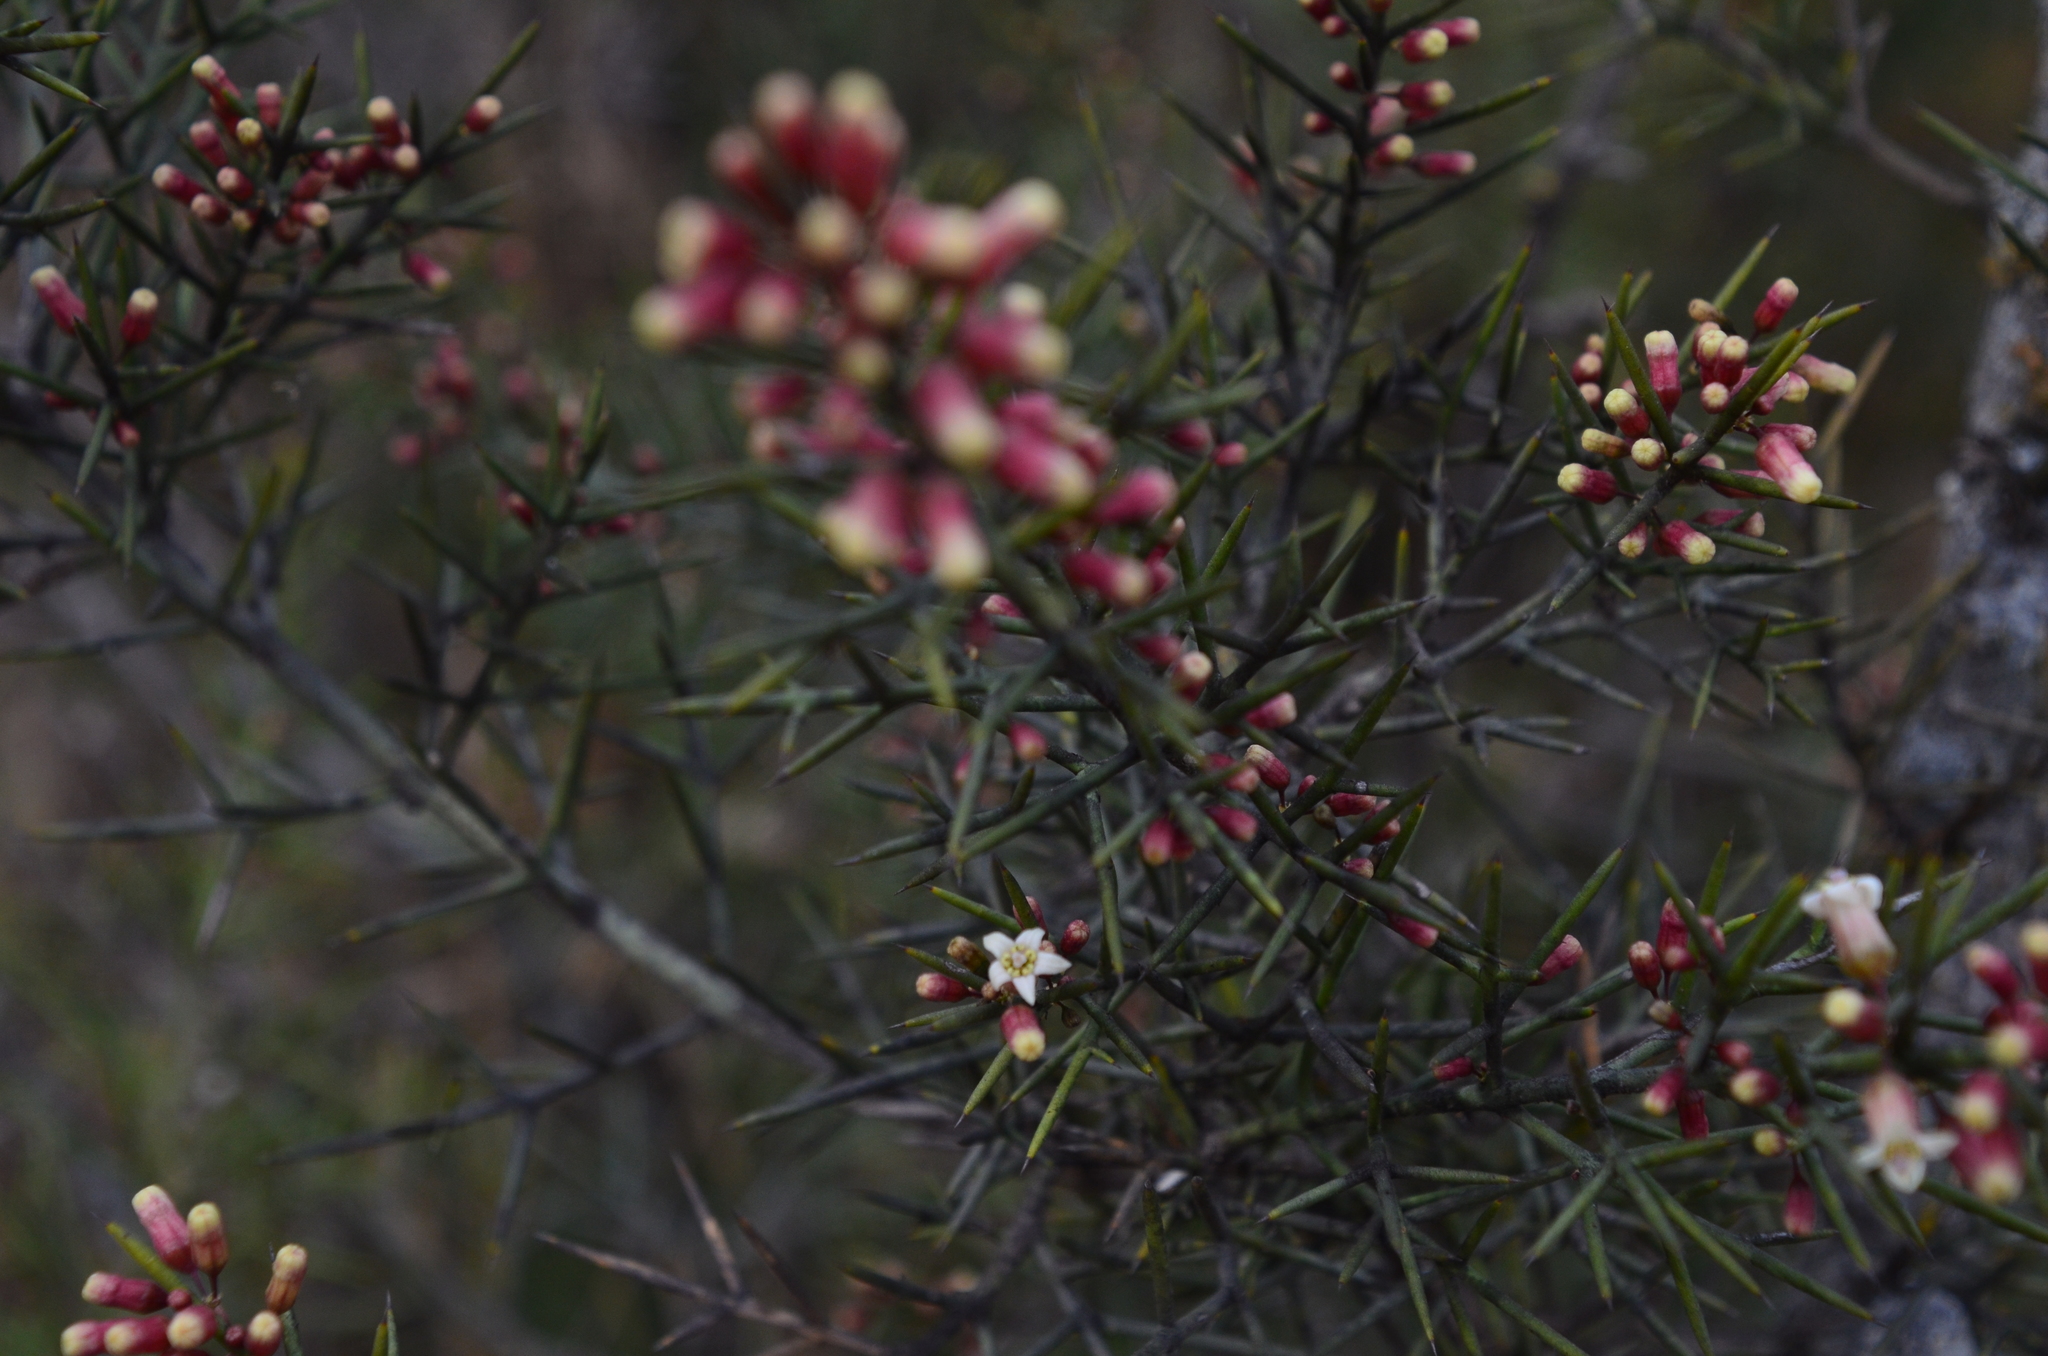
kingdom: Plantae
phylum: Tracheophyta
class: Magnoliopsida
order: Rosales
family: Rhamnaceae
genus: Colletia
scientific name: Colletia spinosissima
